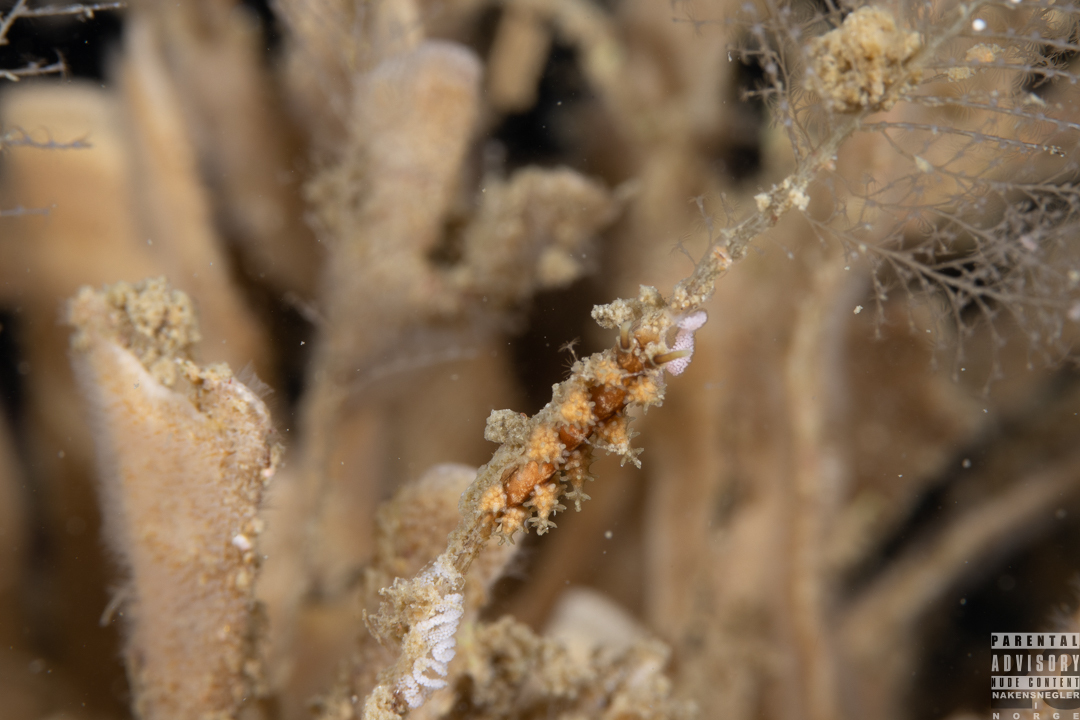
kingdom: Animalia
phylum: Mollusca
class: Gastropoda
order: Nudibranchia
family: Dotidae
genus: Doto
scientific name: Doto hystrix
